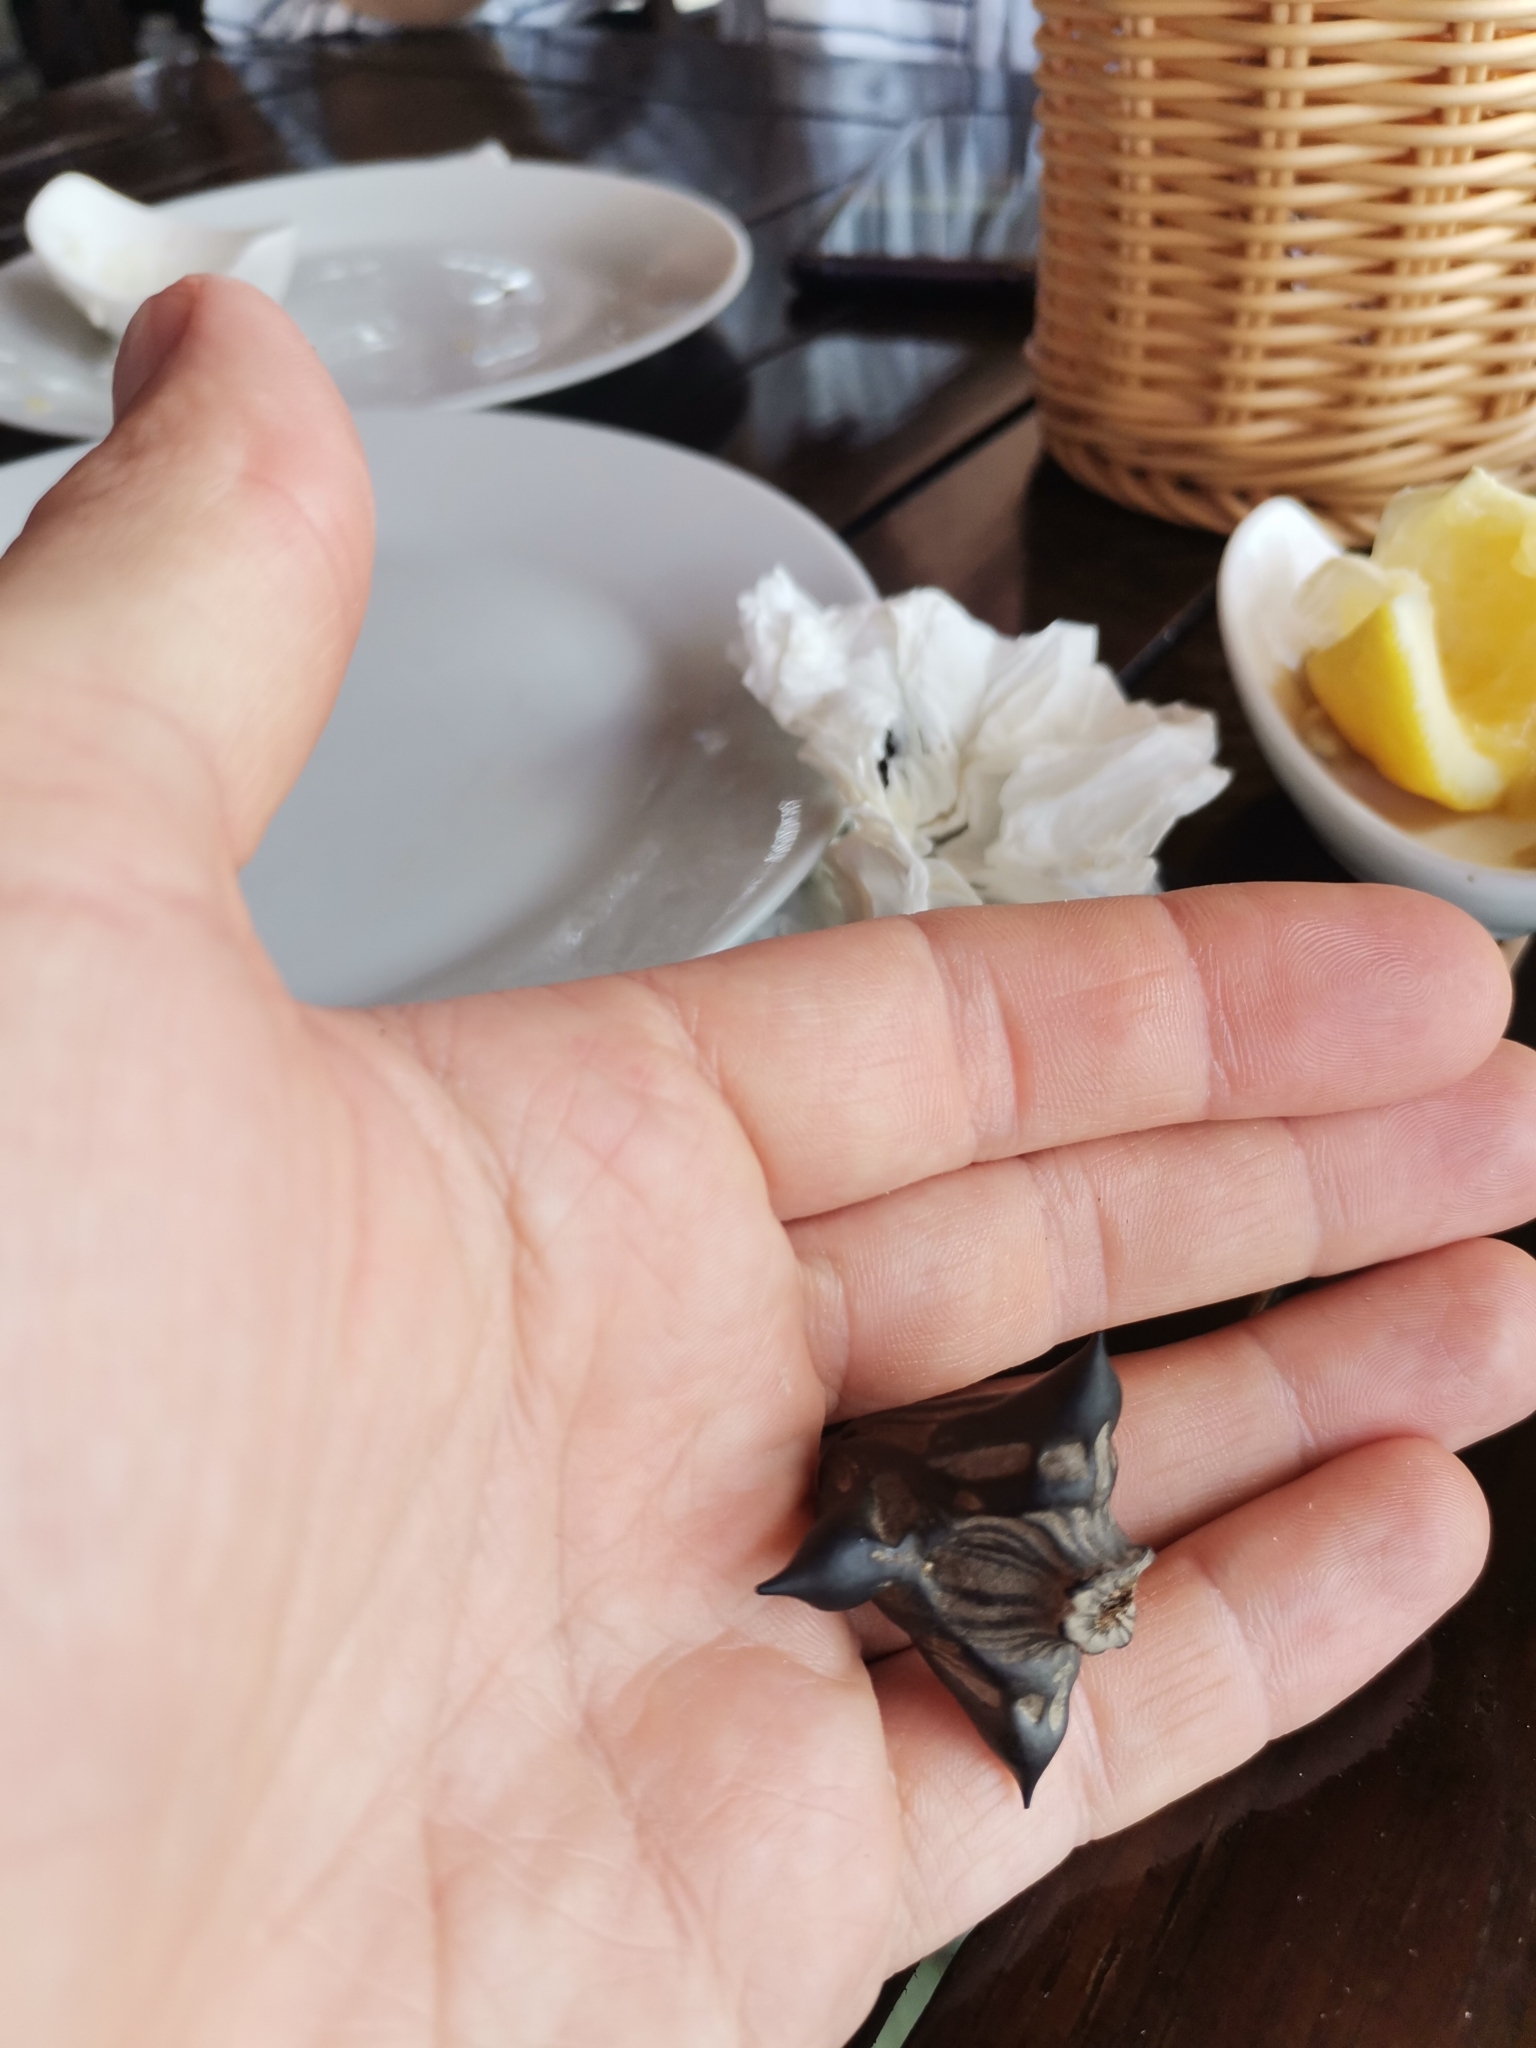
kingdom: Plantae
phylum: Tracheophyta
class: Magnoliopsida
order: Myrtales
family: Lythraceae
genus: Trapa
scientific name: Trapa natans
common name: Water chestnut
